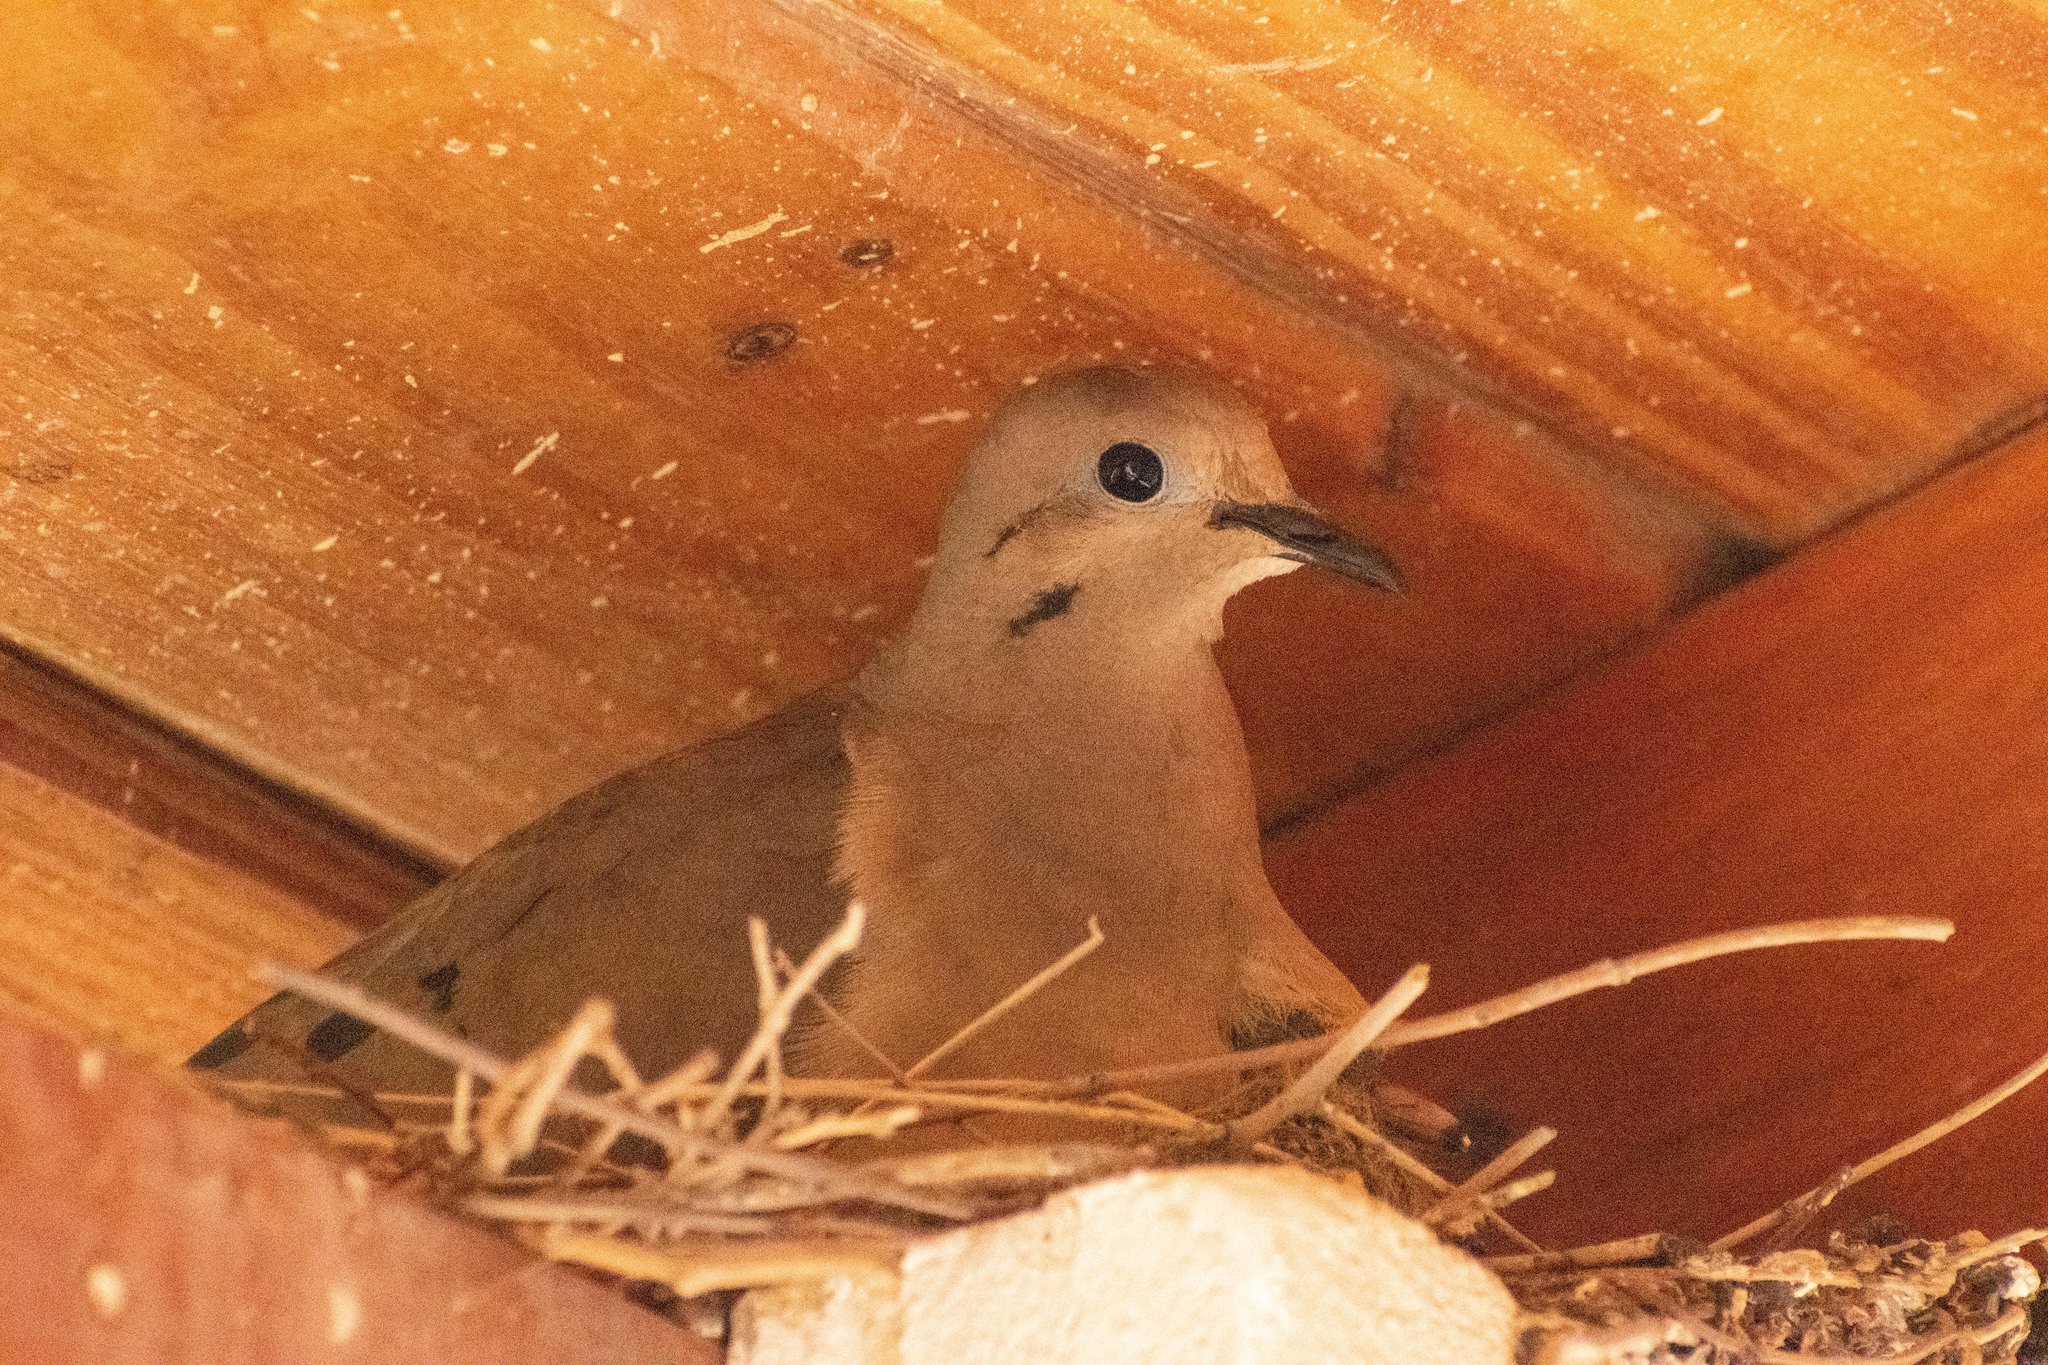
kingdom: Animalia
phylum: Chordata
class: Aves
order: Columbiformes
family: Columbidae
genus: Zenaida
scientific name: Zenaida auriculata
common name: Eared dove
